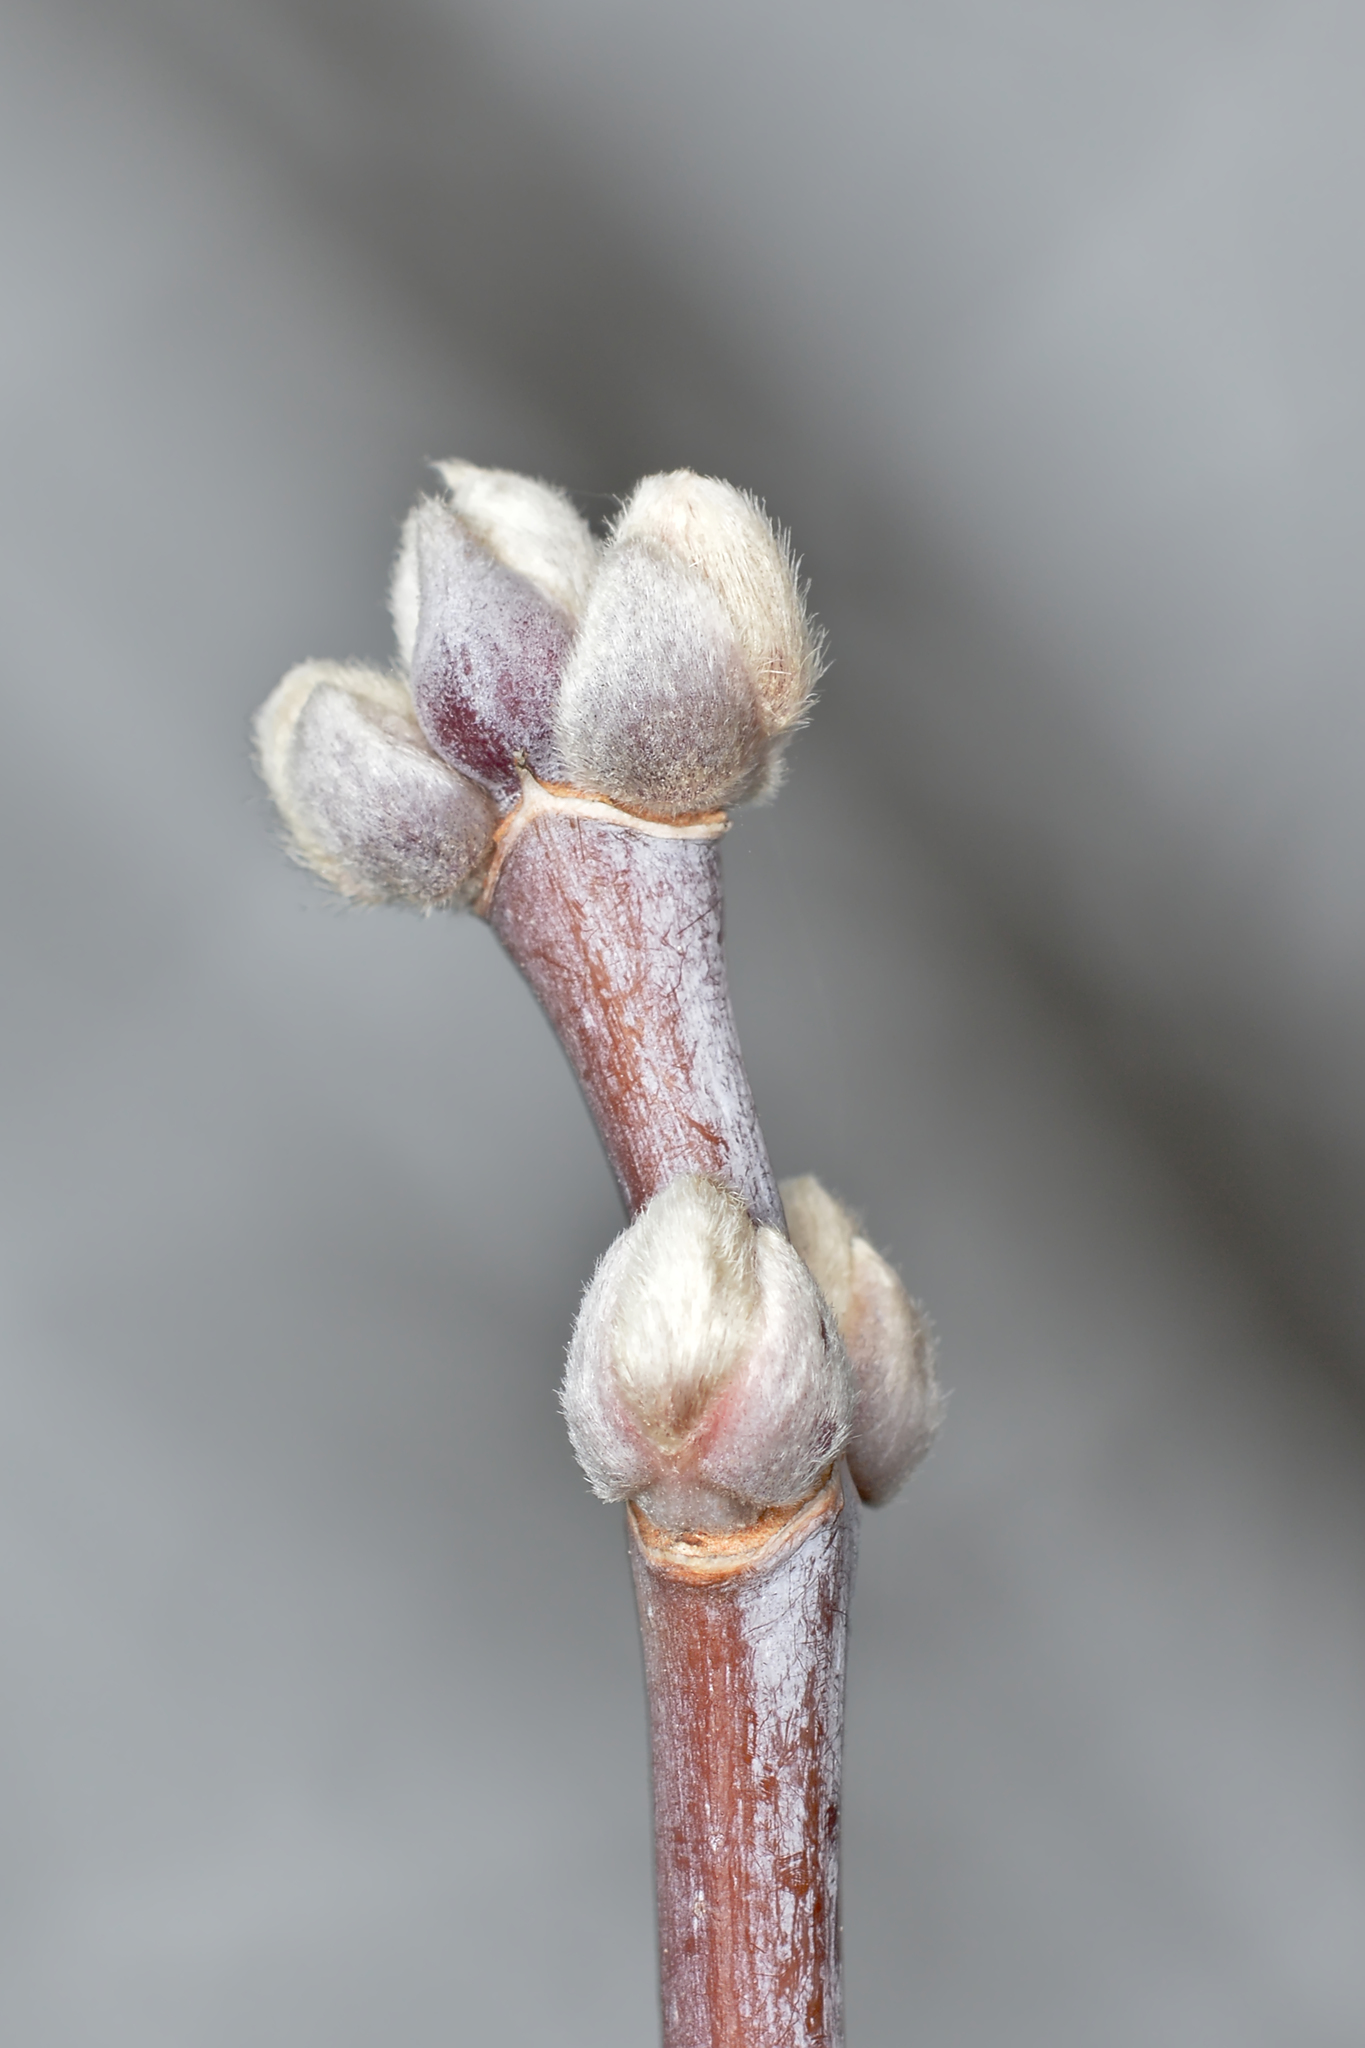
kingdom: Plantae
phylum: Tracheophyta
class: Magnoliopsida
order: Sapindales
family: Sapindaceae
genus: Acer
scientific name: Acer negundo
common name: Ashleaf maple
